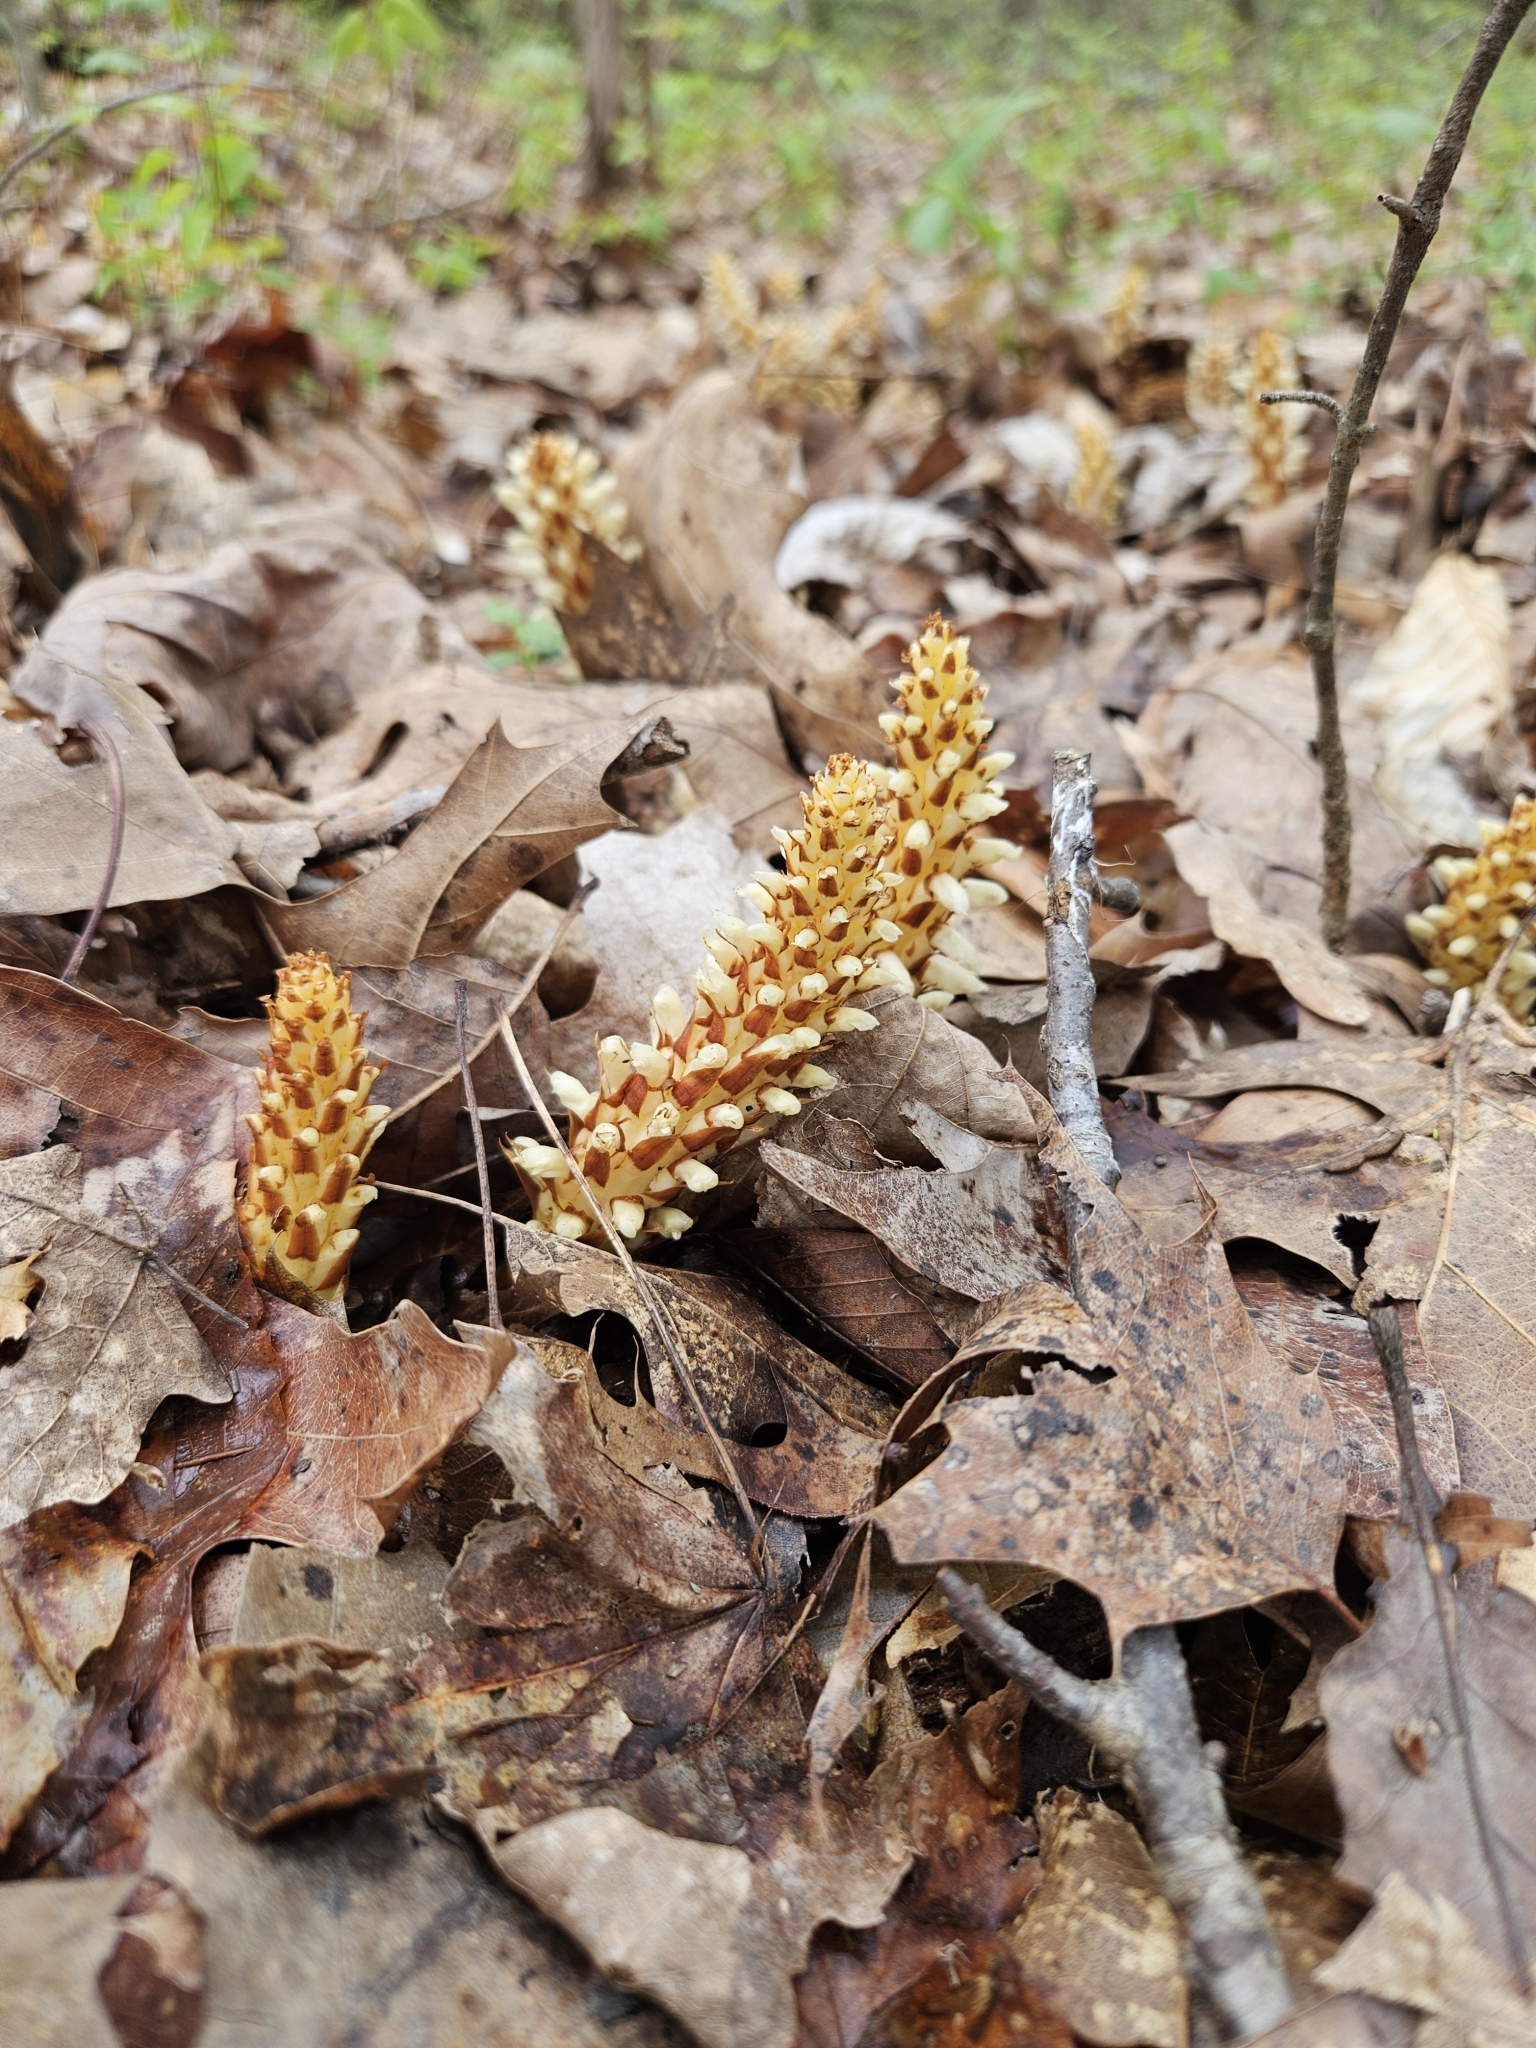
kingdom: Plantae
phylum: Tracheophyta
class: Magnoliopsida
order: Lamiales
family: Orobanchaceae
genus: Conopholis
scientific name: Conopholis americana
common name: American cancer-root
